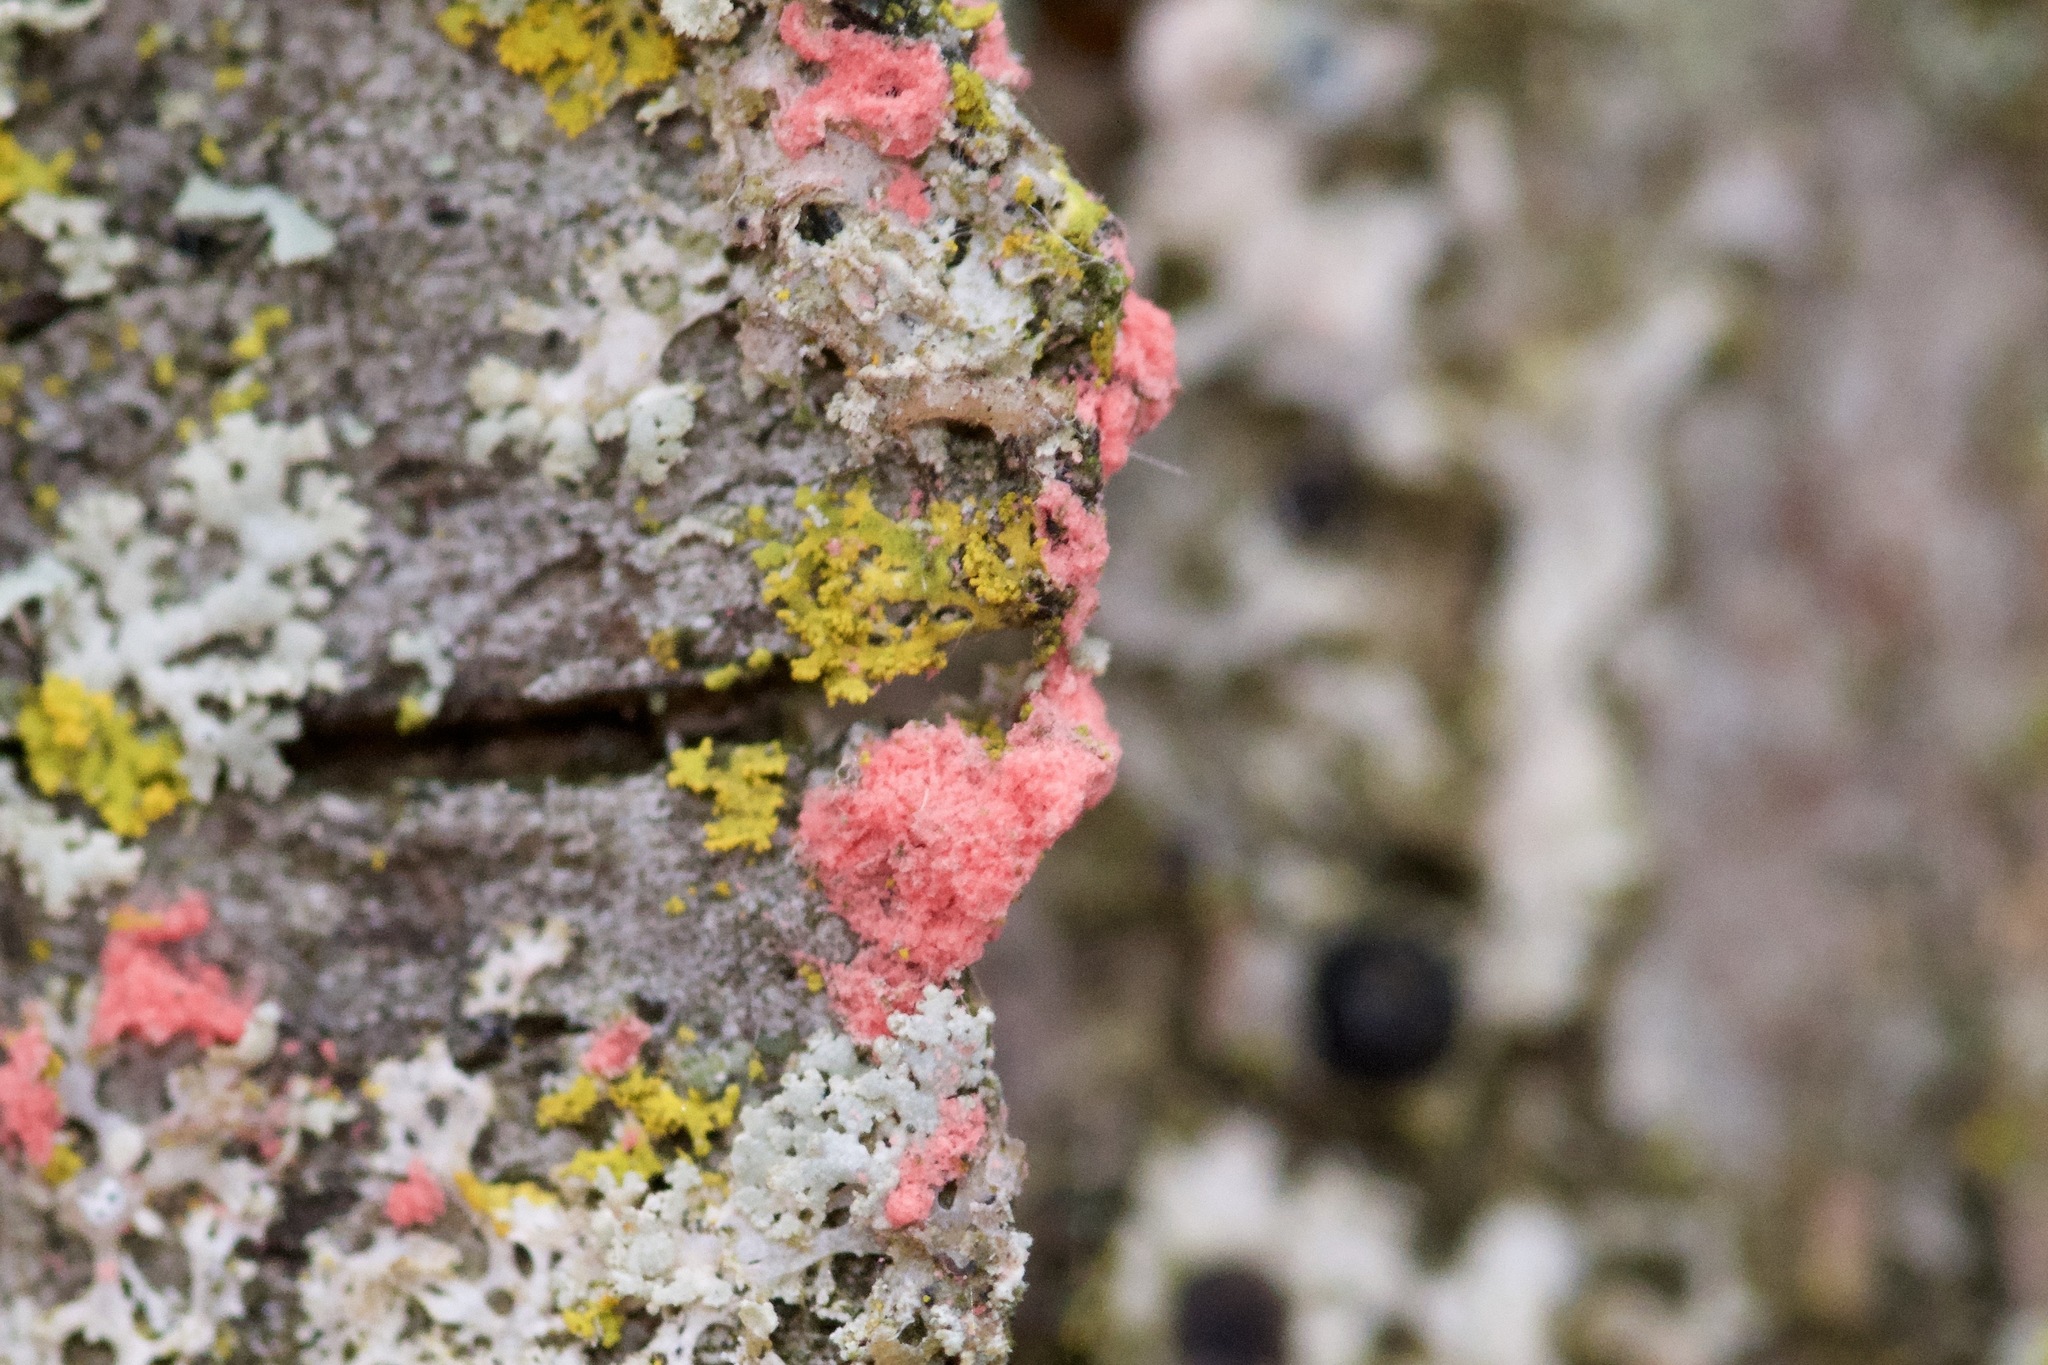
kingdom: Fungi
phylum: Ascomycota
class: Sordariomycetes
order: Hypocreales
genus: Illosporiopsis
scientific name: Illosporiopsis christiansenii
